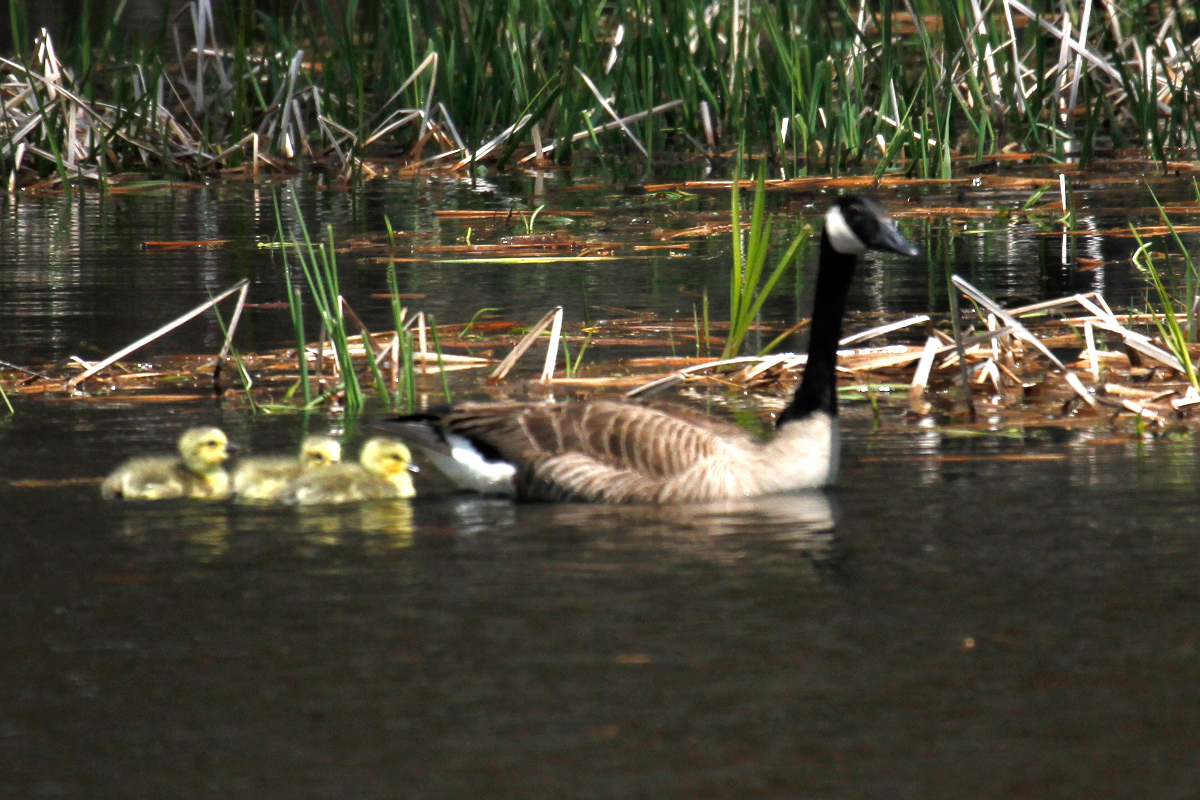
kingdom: Animalia
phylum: Chordata
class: Aves
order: Anseriformes
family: Anatidae
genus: Branta
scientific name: Branta canadensis
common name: Canada goose
